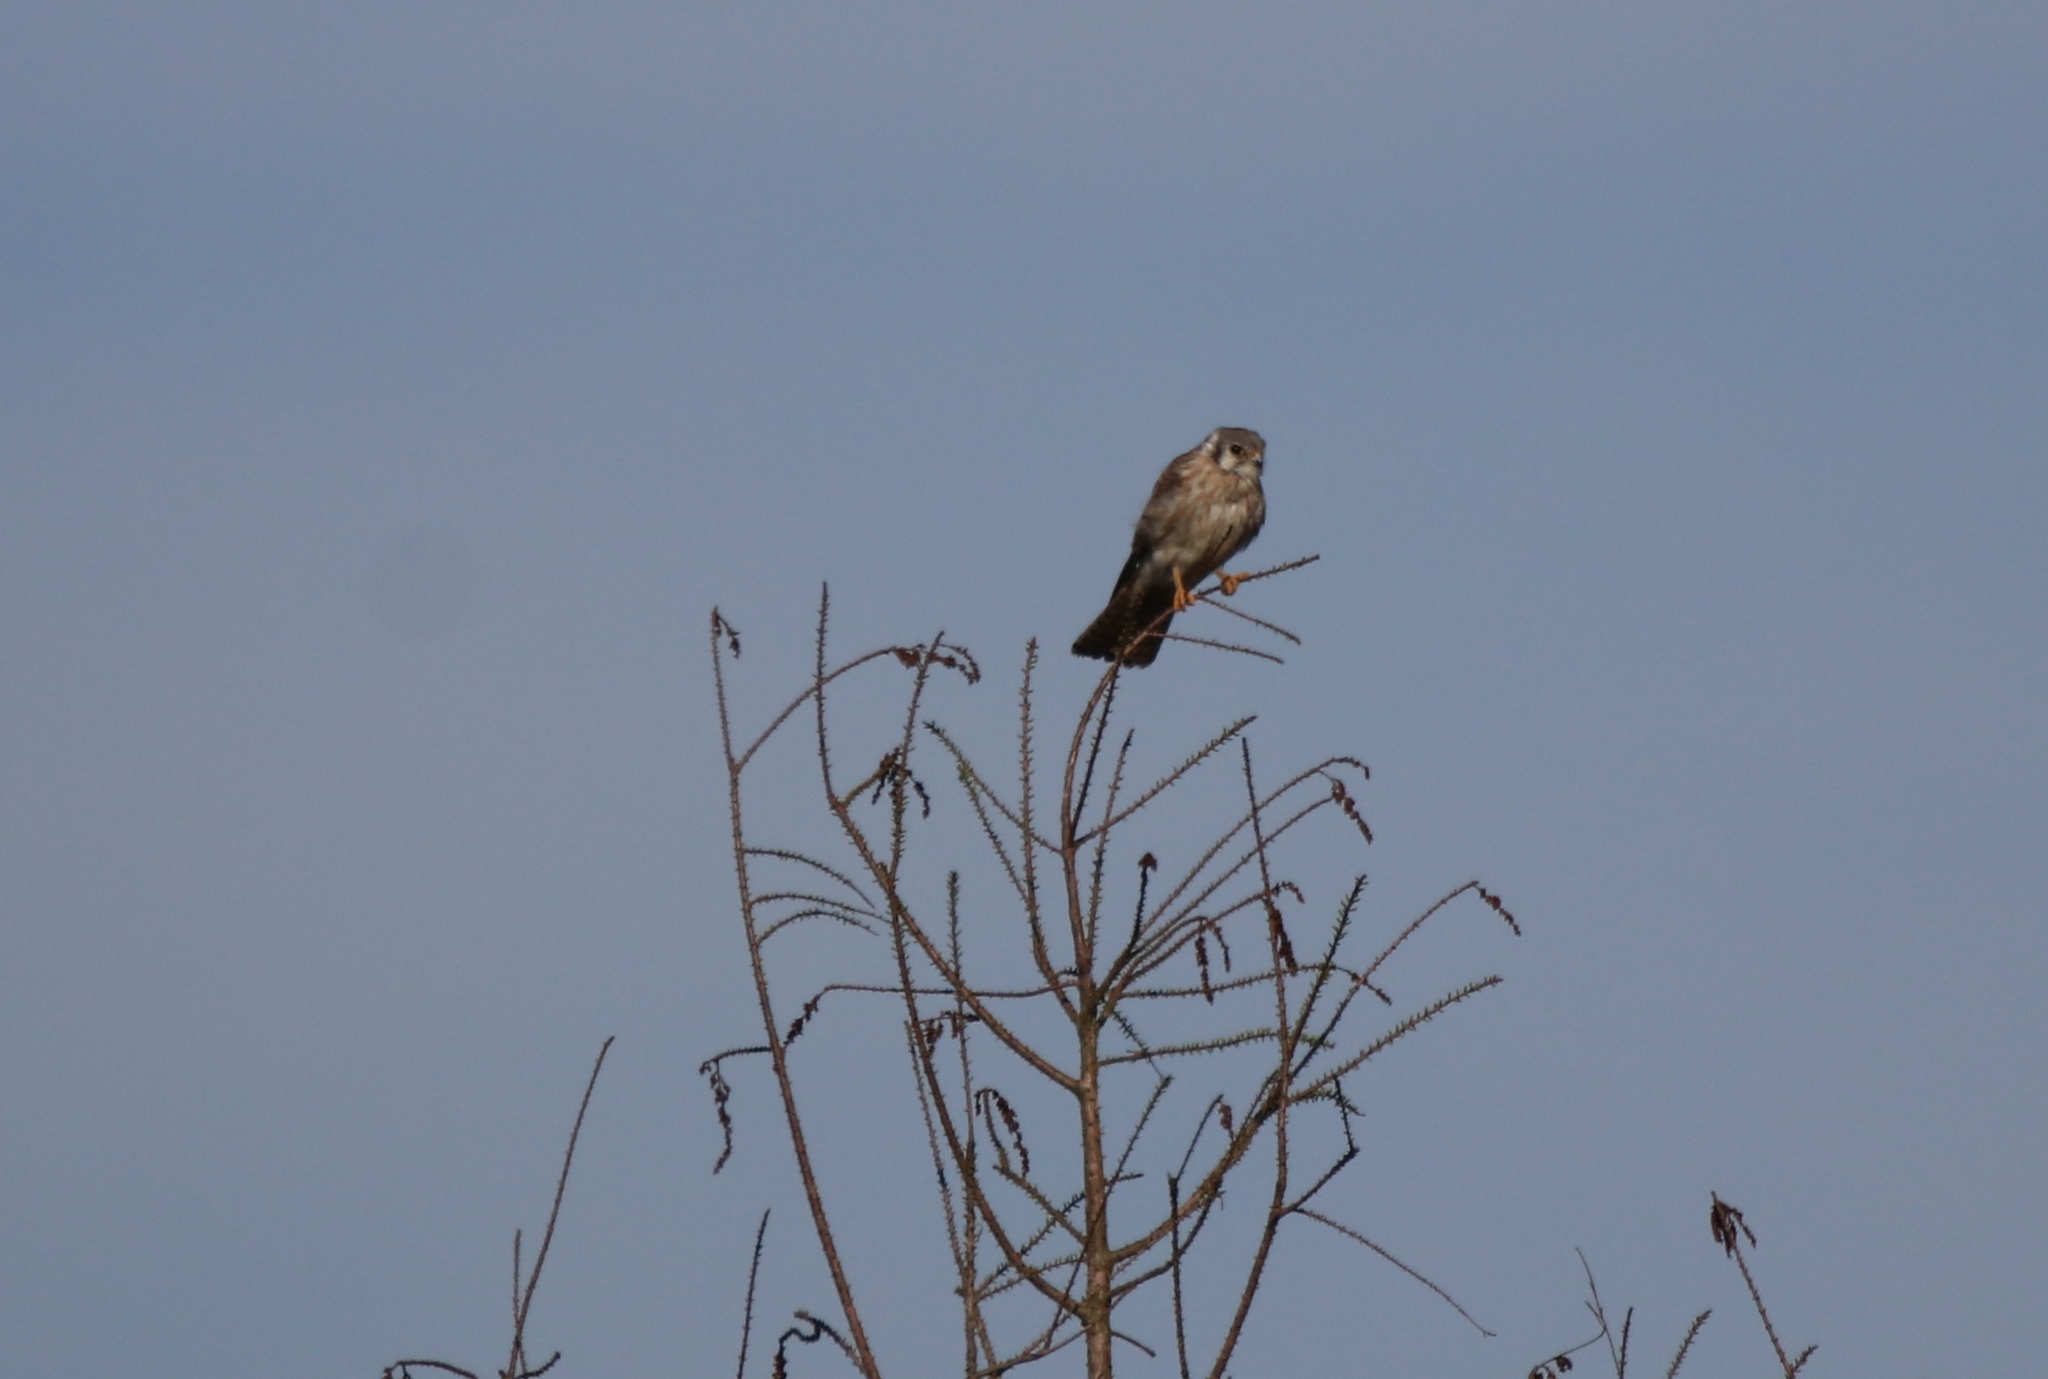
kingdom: Animalia
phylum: Chordata
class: Aves
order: Falconiformes
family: Falconidae
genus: Falco
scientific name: Falco sparverius
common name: American kestrel
